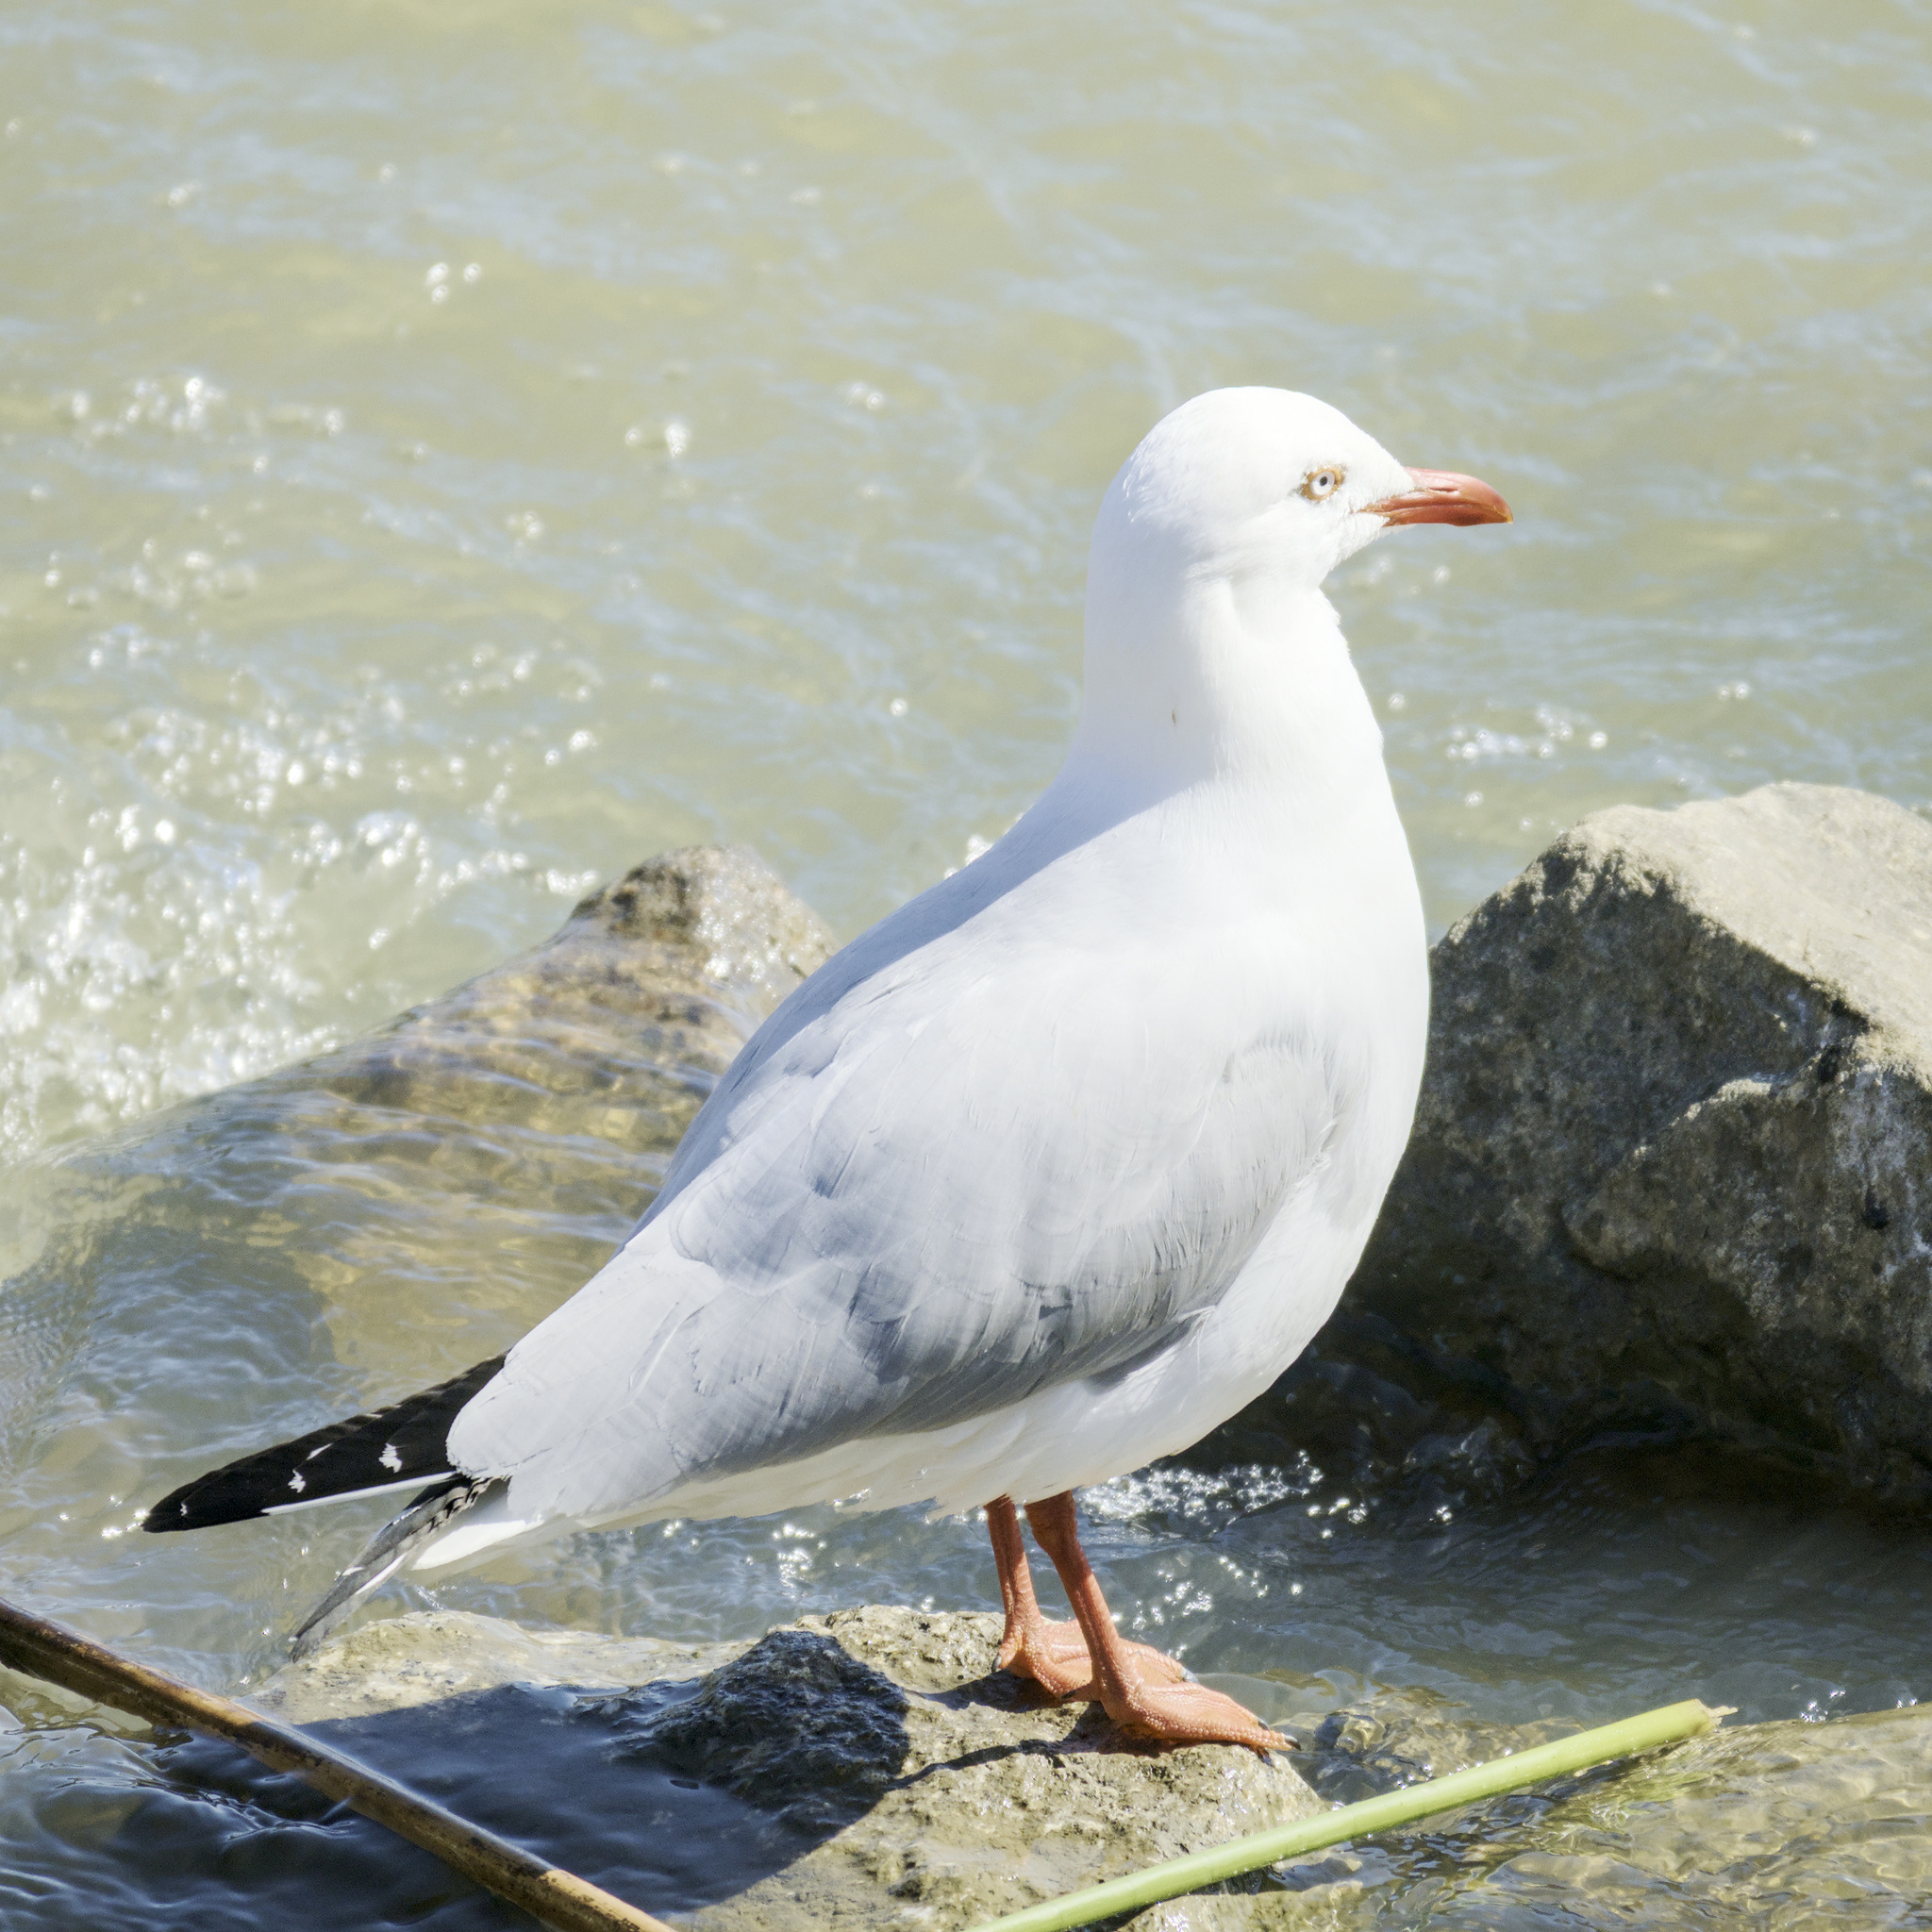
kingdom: Animalia
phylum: Chordata
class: Aves
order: Charadriiformes
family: Laridae
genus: Chroicocephalus
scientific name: Chroicocephalus novaehollandiae
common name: Silver gull
